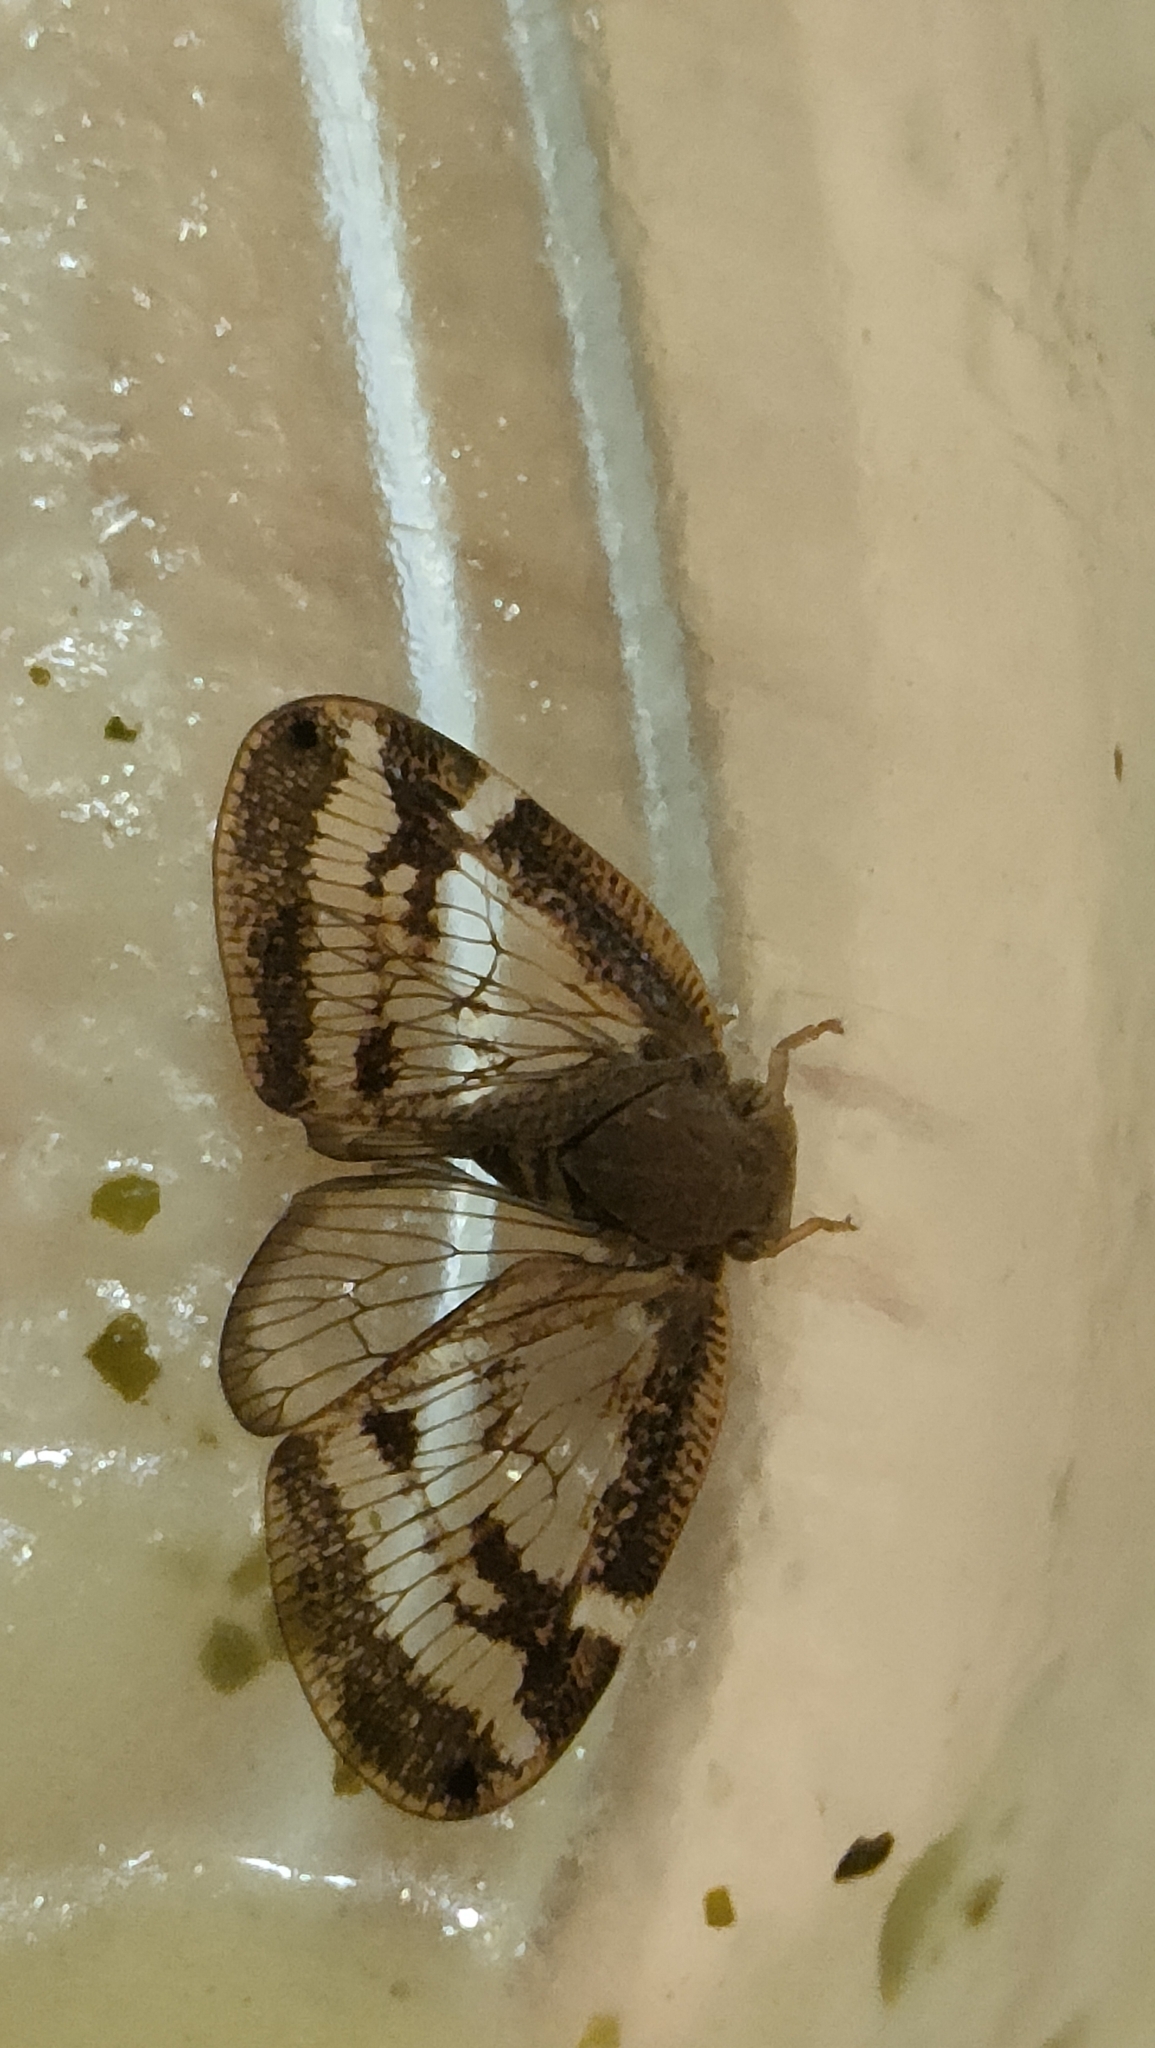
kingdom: Animalia
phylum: Arthropoda
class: Insecta
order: Hemiptera
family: Ricaniidae
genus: Scolypopa
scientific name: Scolypopa australis
